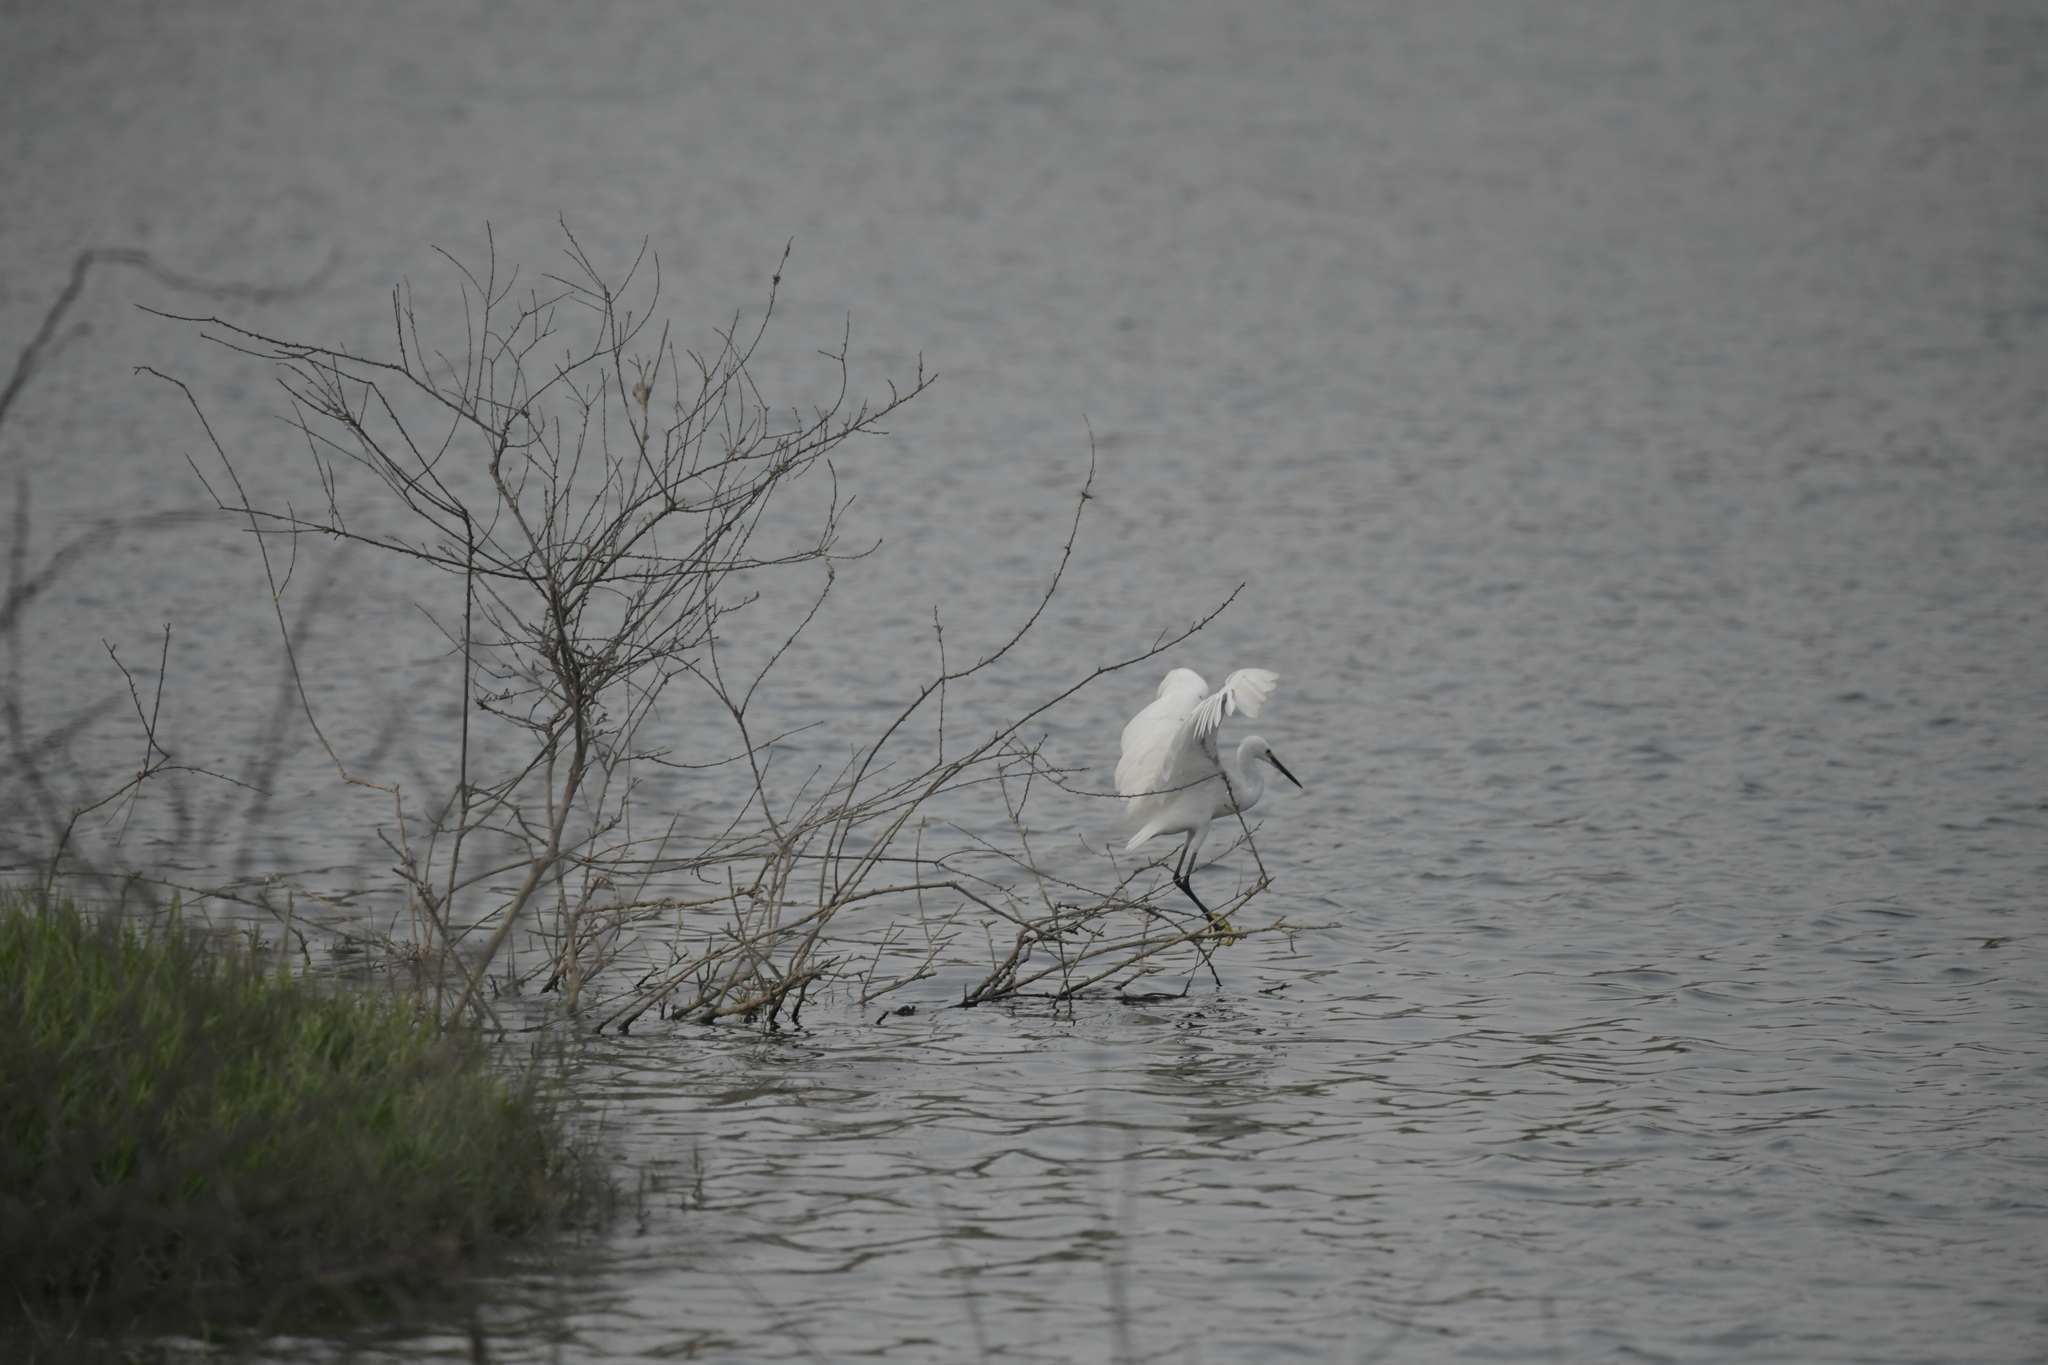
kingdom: Animalia
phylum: Chordata
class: Aves
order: Pelecaniformes
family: Ardeidae
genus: Egretta
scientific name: Egretta garzetta
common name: Little egret
